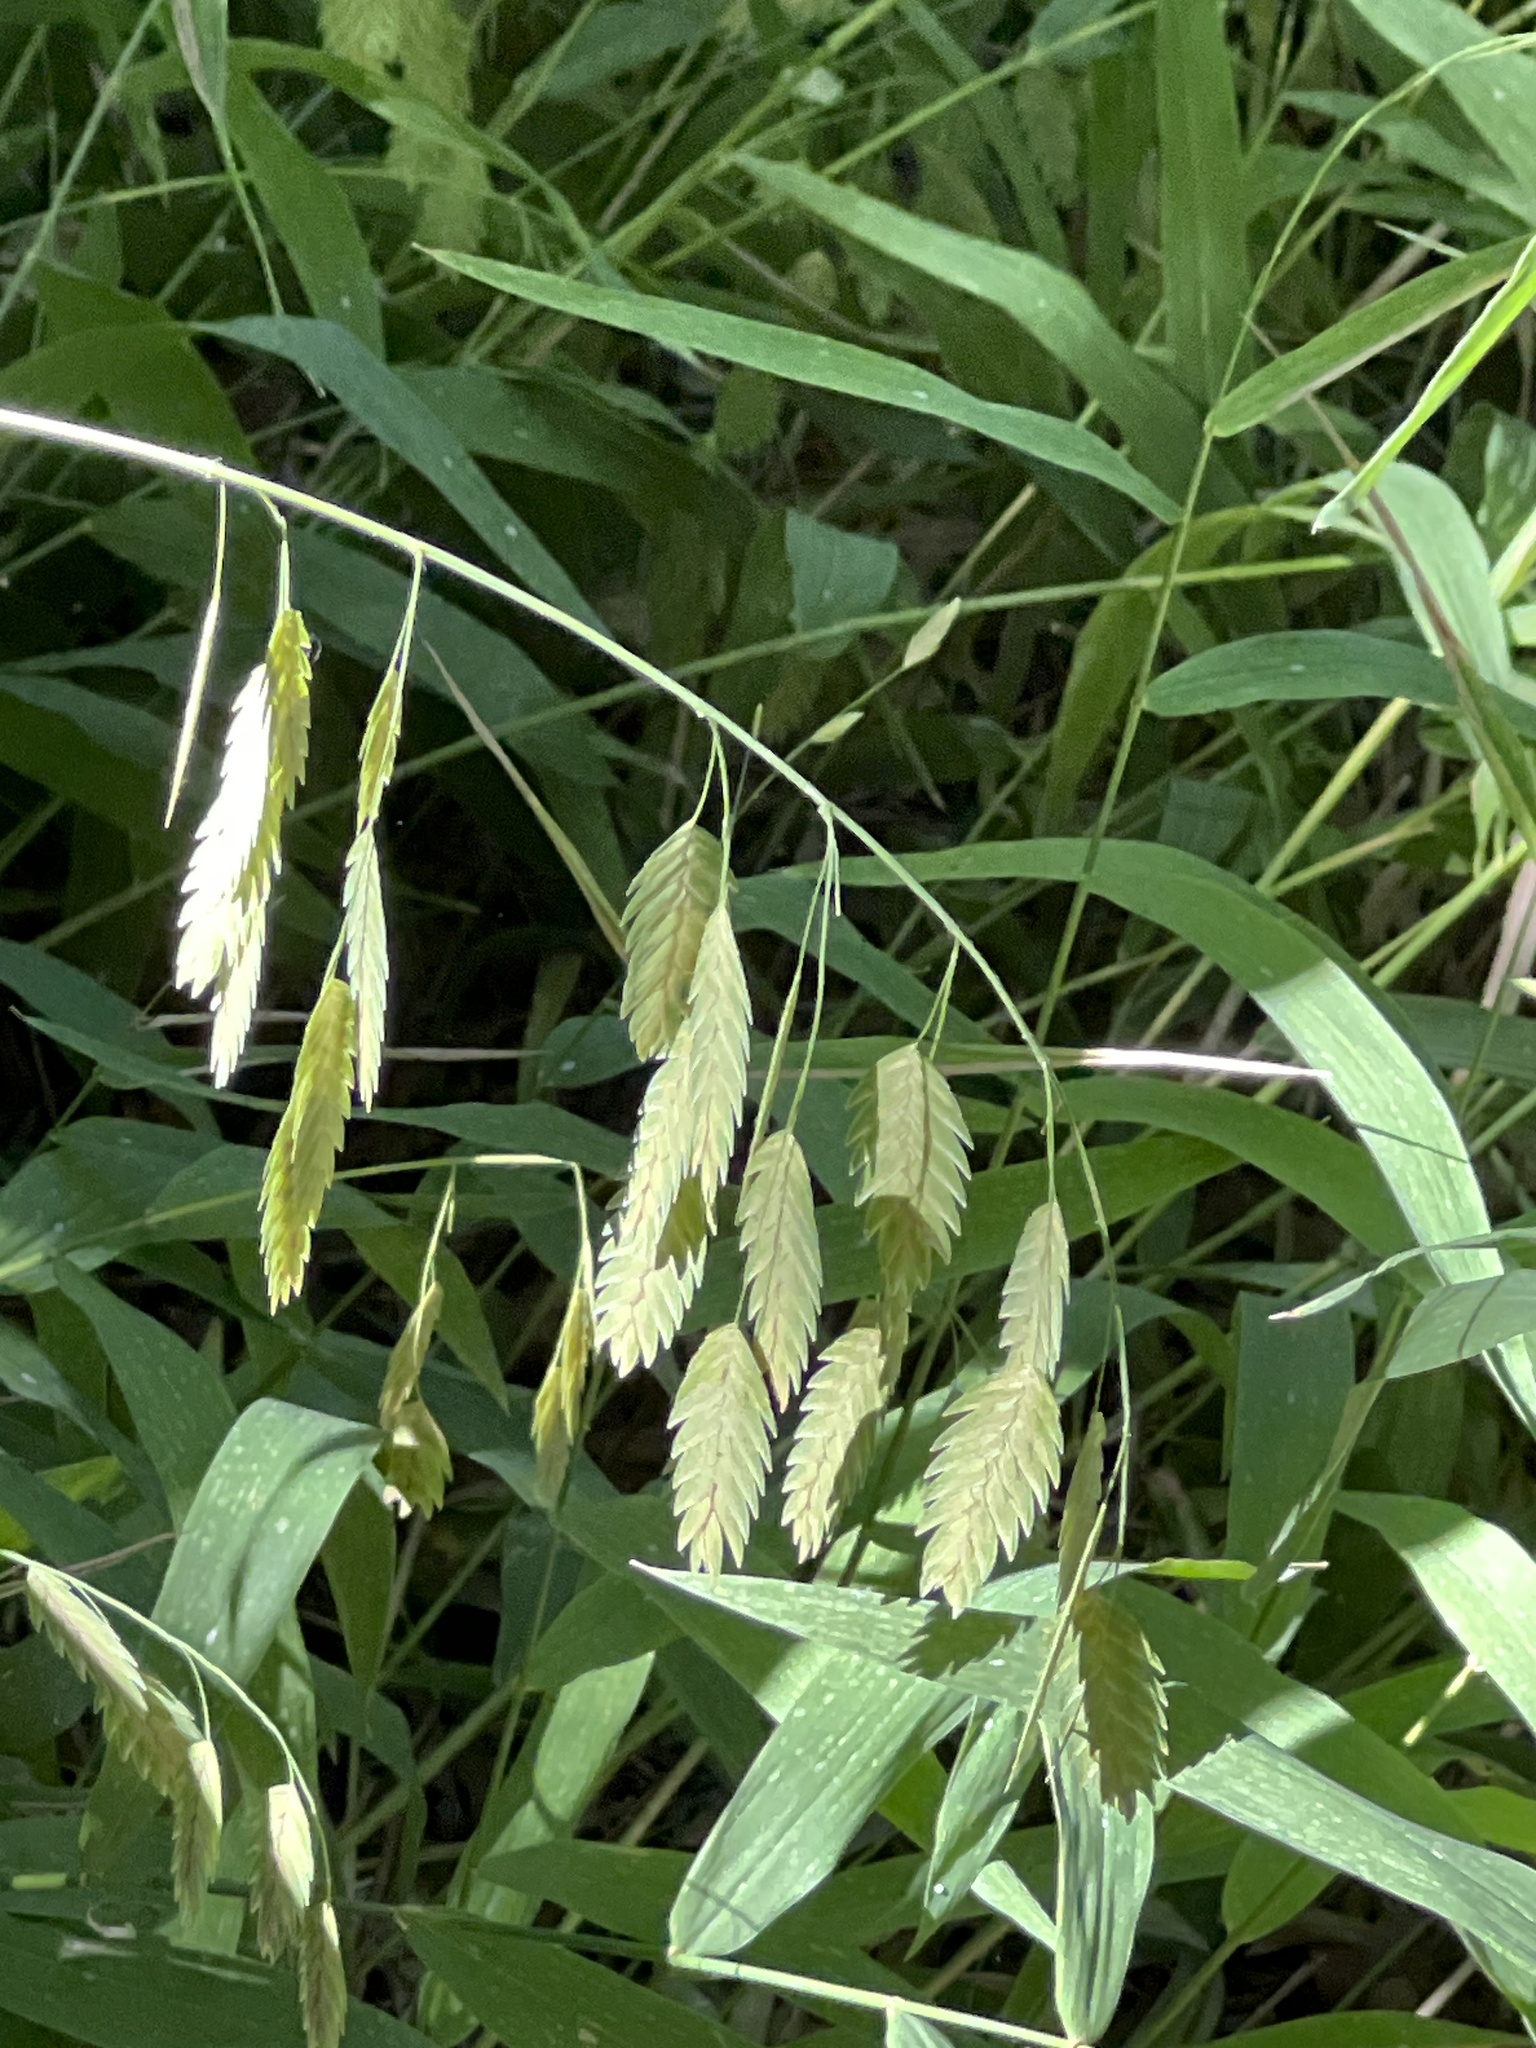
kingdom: Plantae
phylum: Tracheophyta
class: Liliopsida
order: Poales
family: Poaceae
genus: Chasmanthium
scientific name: Chasmanthium latifolium
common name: Broad-leaved chasmanthium
